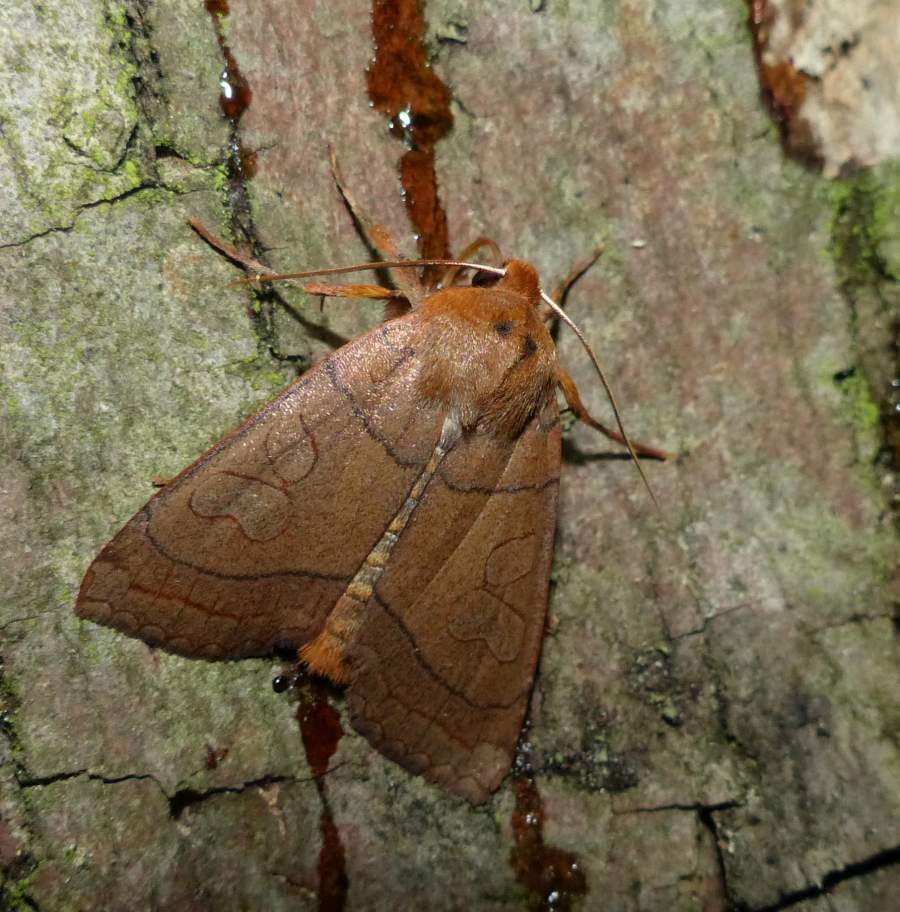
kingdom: Animalia
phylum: Arthropoda
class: Insecta
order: Lepidoptera
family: Noctuidae
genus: Metaxaglaea
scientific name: Metaxaglaea inulta
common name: Unsated sallow
